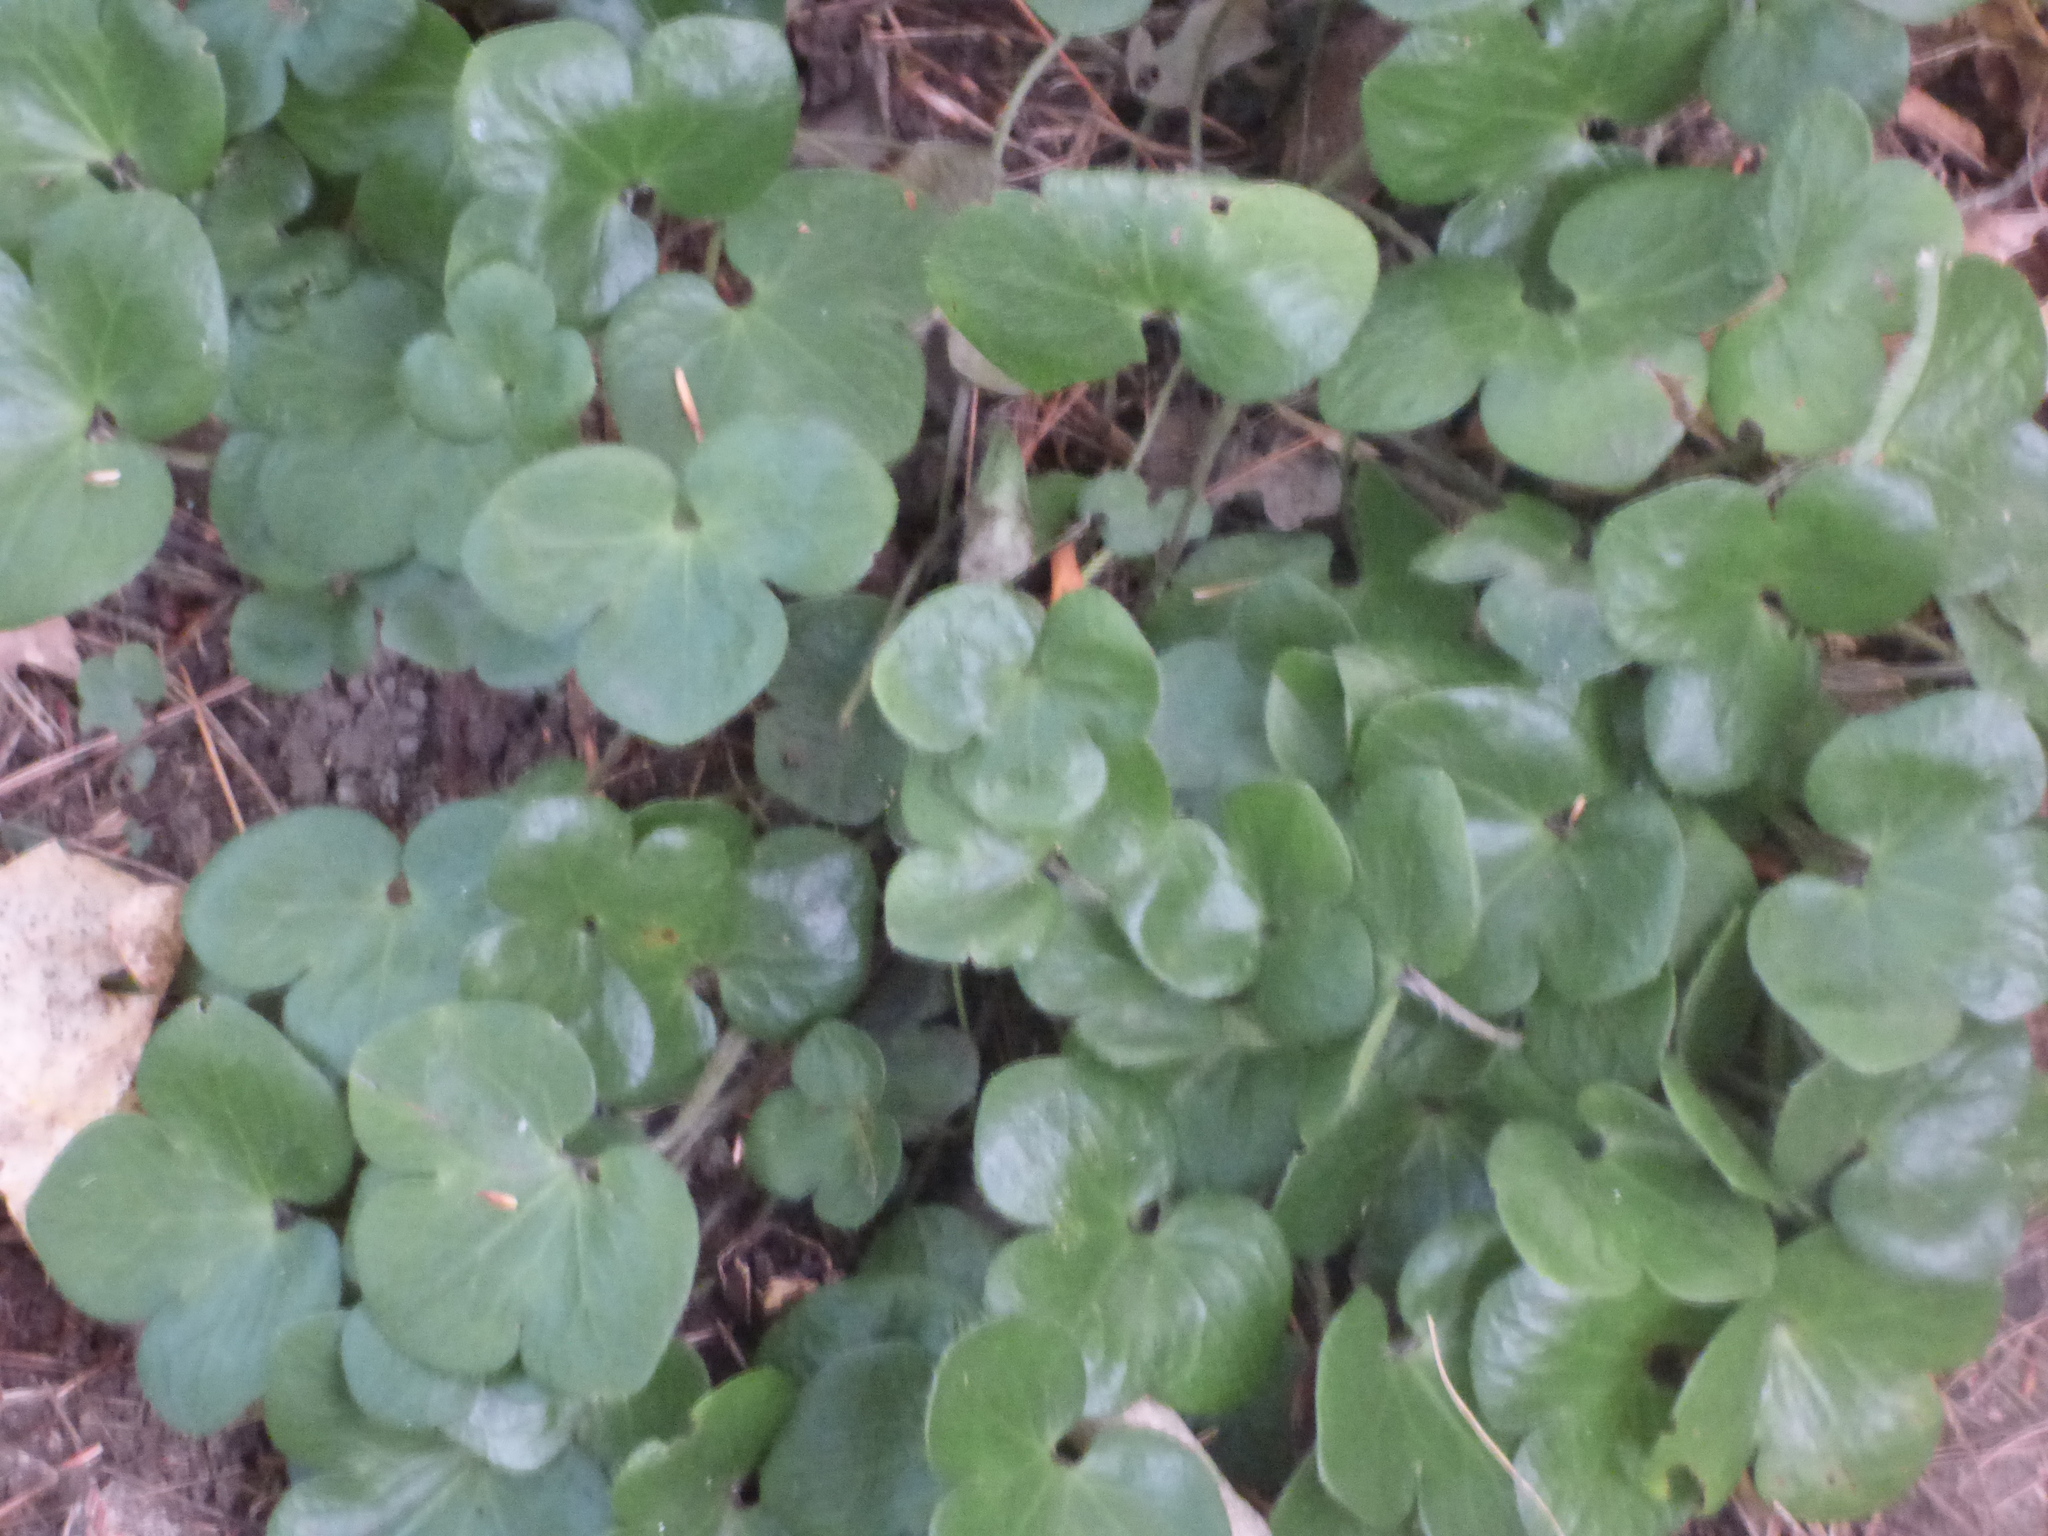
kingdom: Plantae
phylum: Tracheophyta
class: Magnoliopsida
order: Ranunculales
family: Ranunculaceae
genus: Hepatica
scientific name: Hepatica americana
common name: American hepatica
